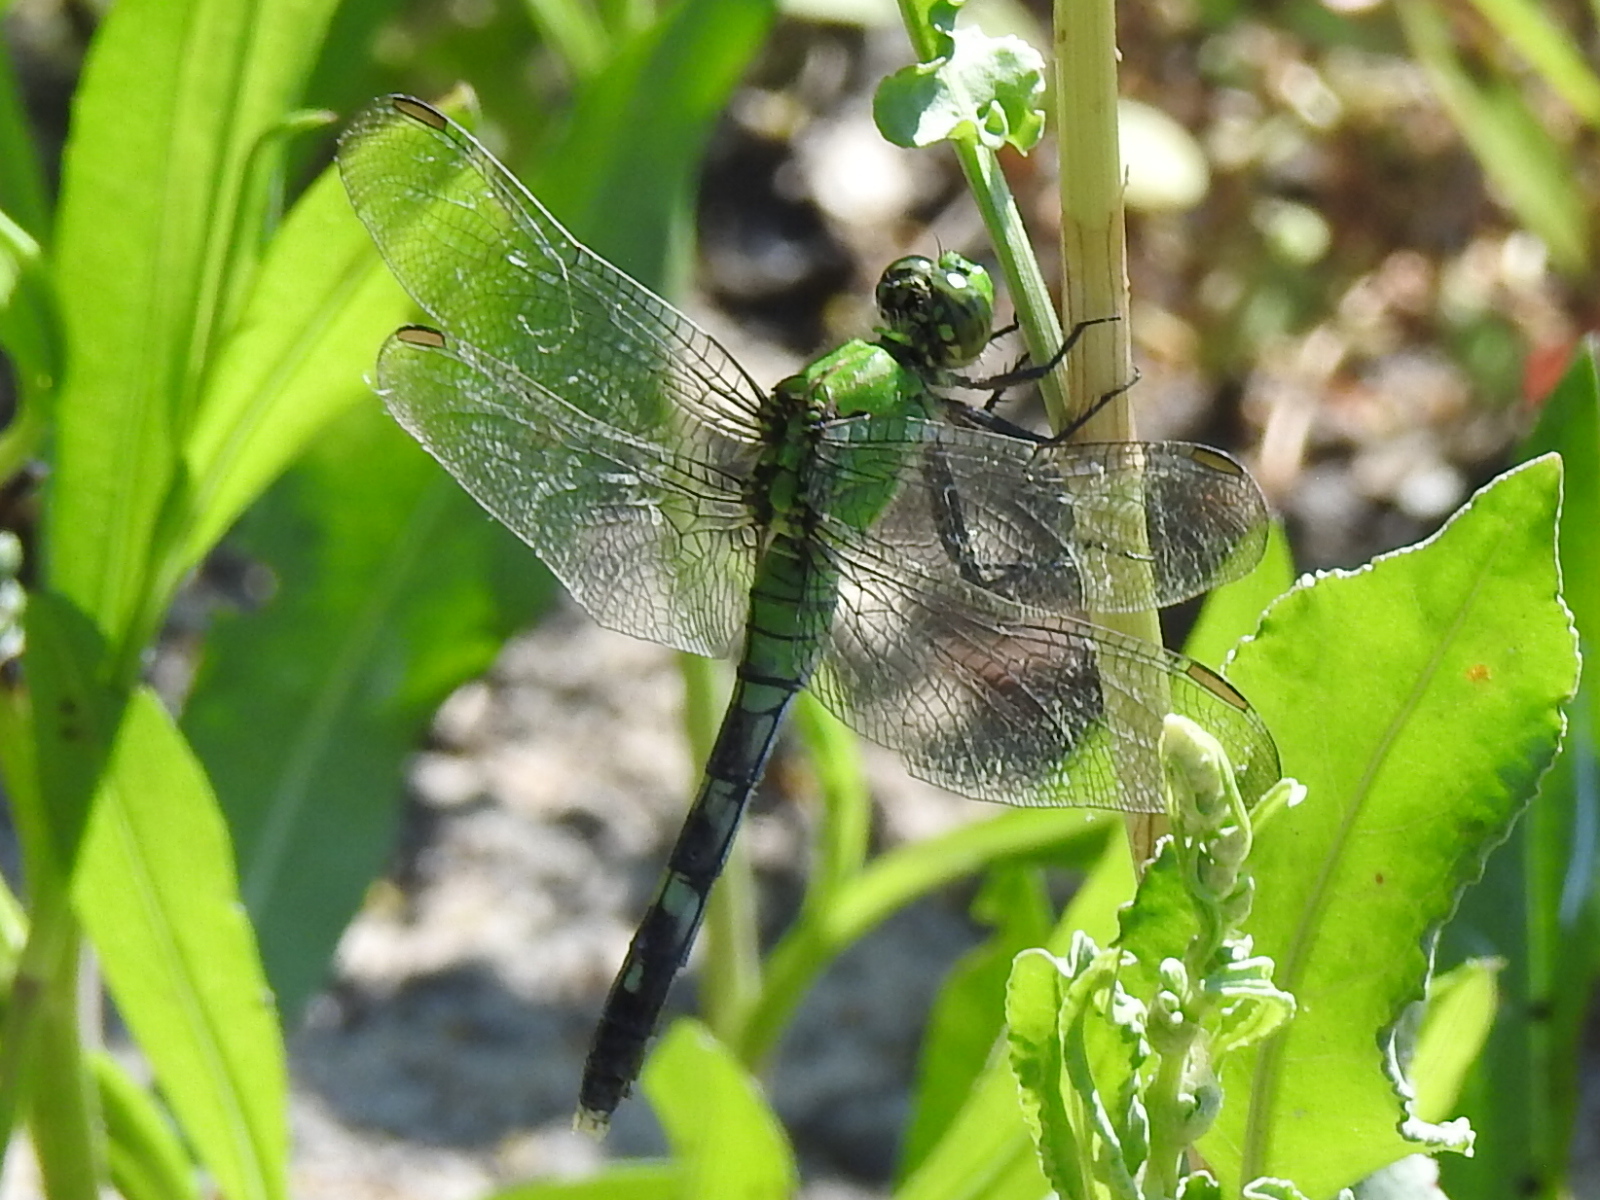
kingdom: Animalia
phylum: Arthropoda
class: Insecta
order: Odonata
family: Libellulidae
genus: Erythemis
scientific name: Erythemis simplicicollis
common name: Eastern pondhawk
